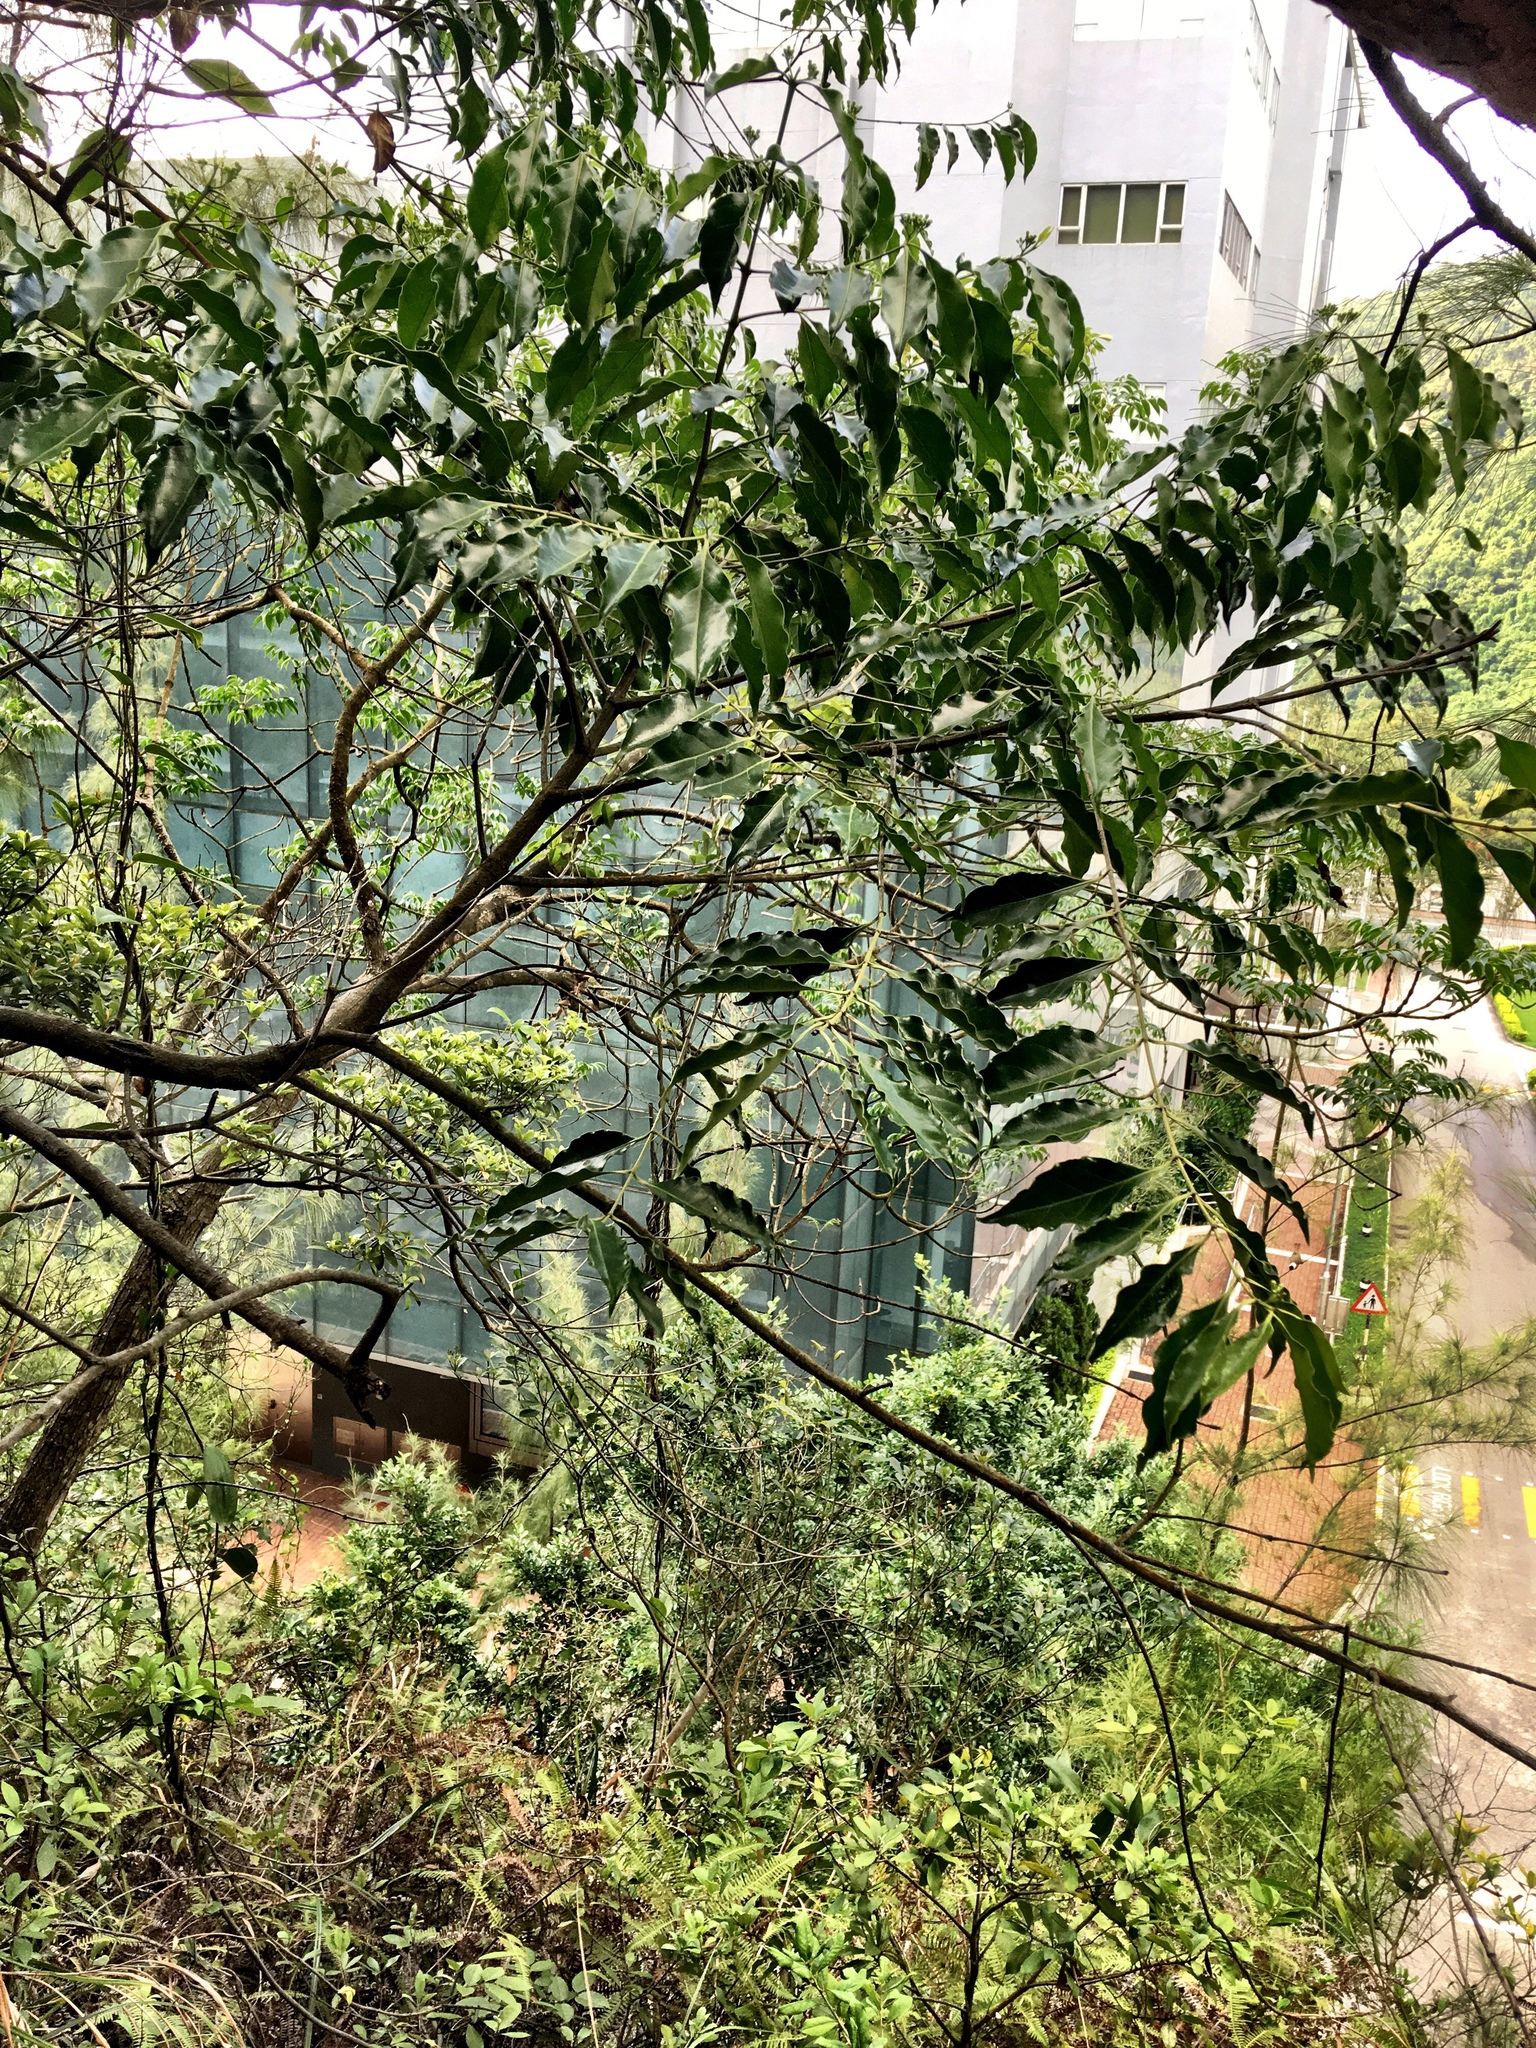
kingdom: Plantae
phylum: Tracheophyta
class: Magnoliopsida
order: Gentianales
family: Rubiaceae
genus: Psydrax
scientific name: Psydrax dicoccos
